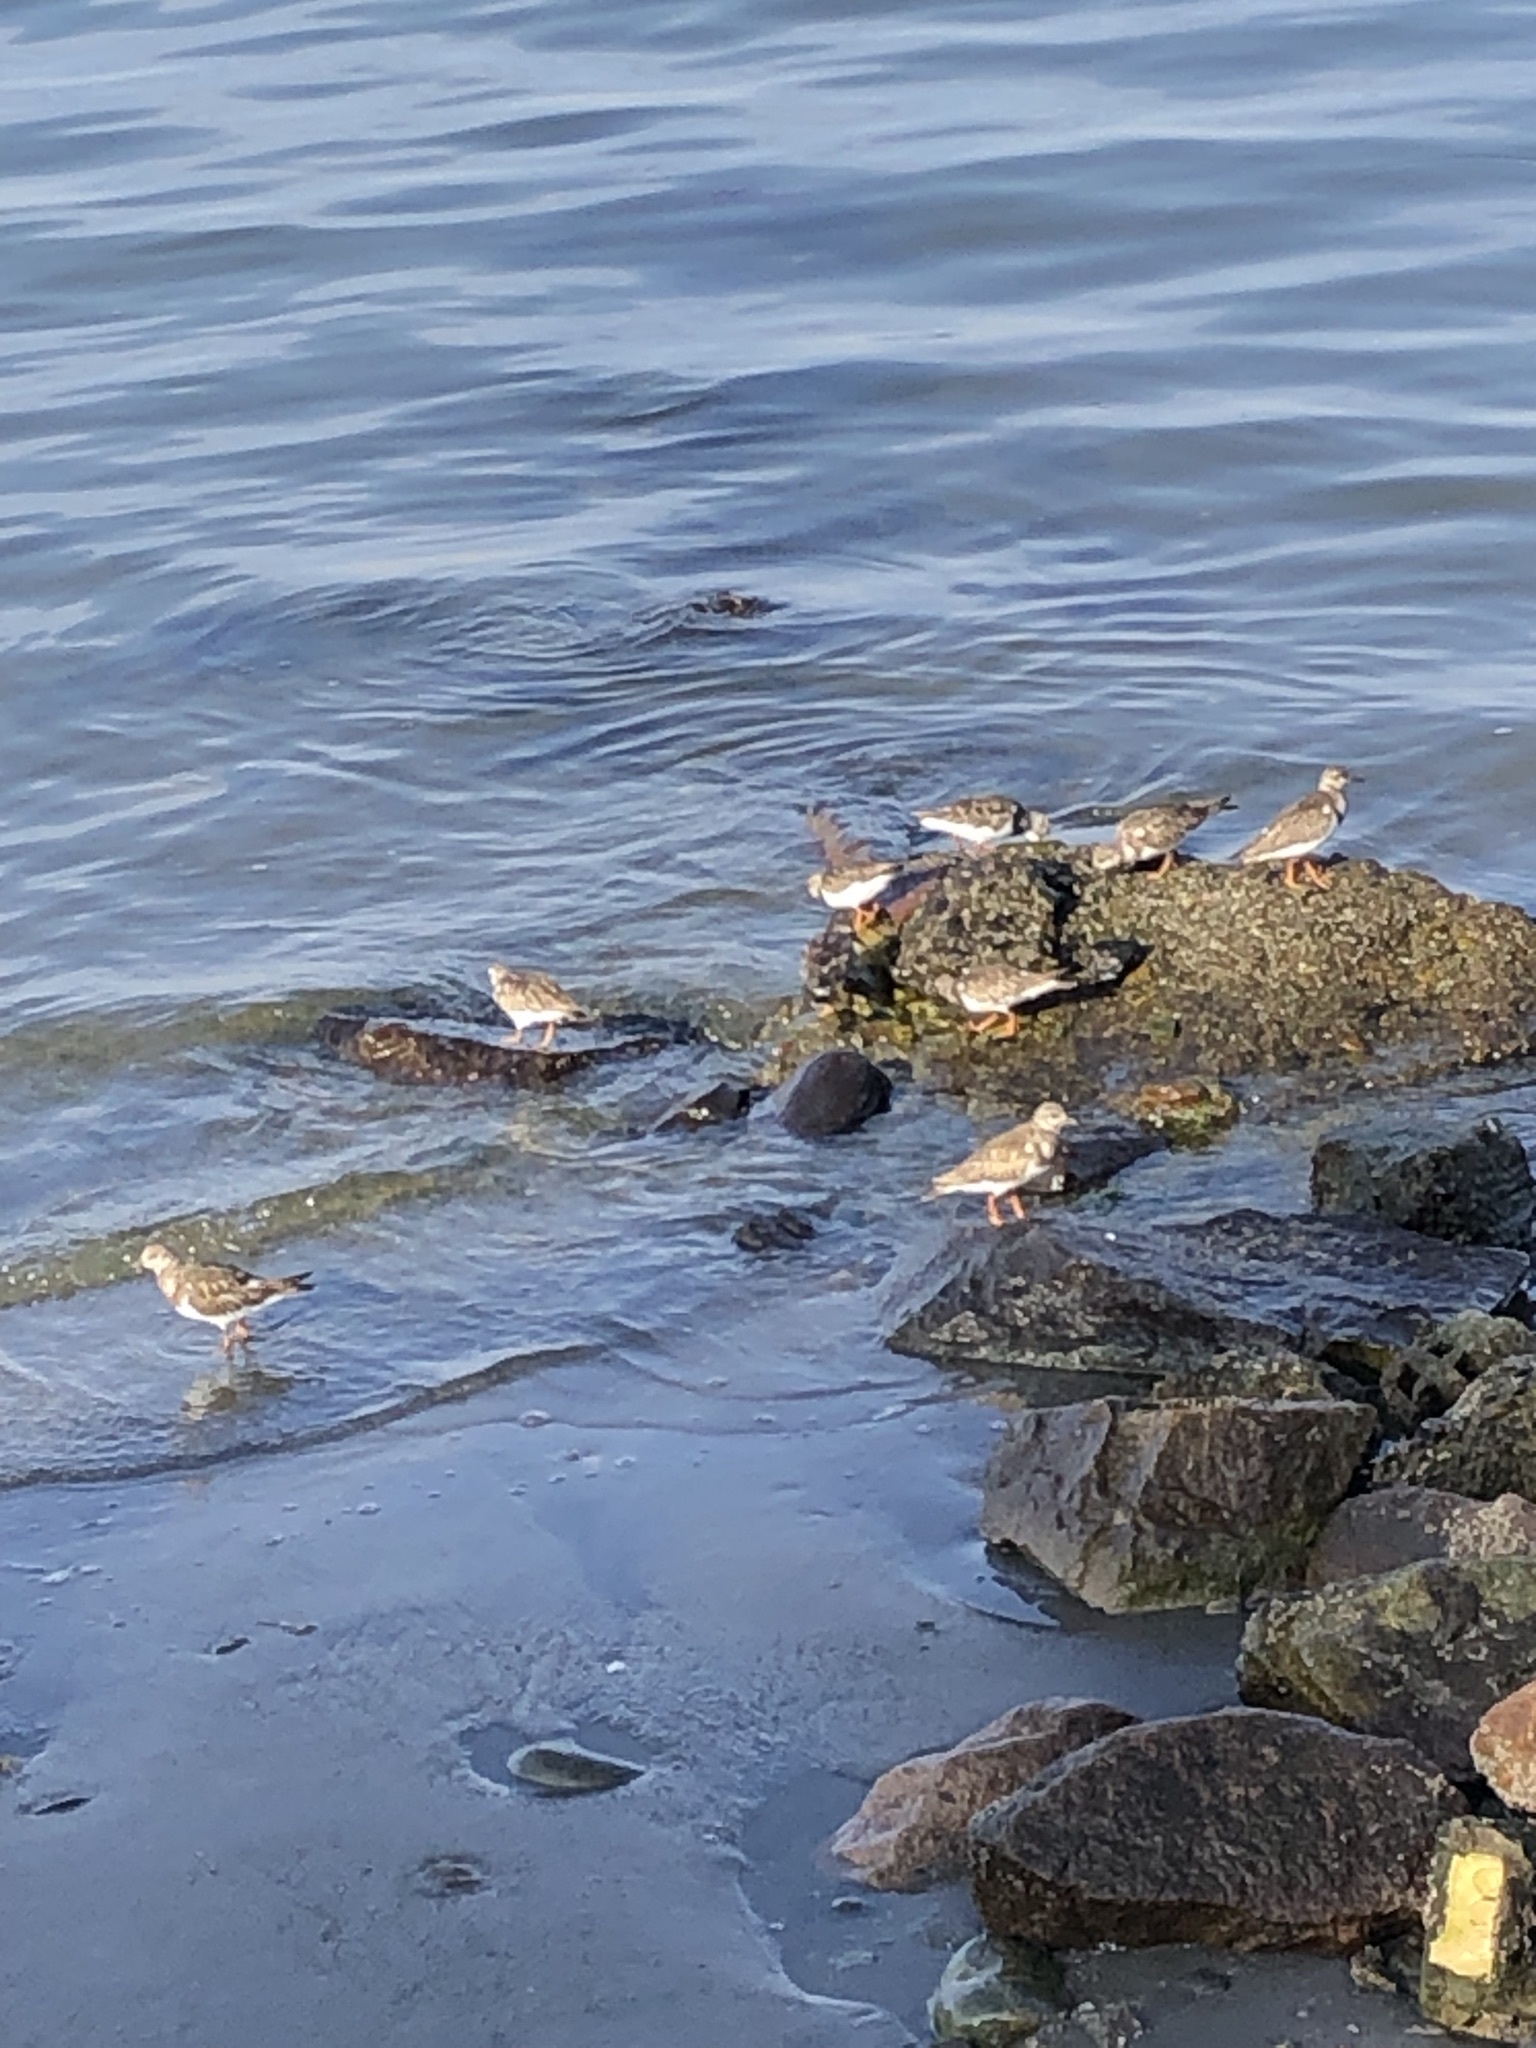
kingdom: Animalia
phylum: Chordata
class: Aves
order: Charadriiformes
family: Scolopacidae
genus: Arenaria
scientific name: Arenaria interpres
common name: Ruddy turnstone
